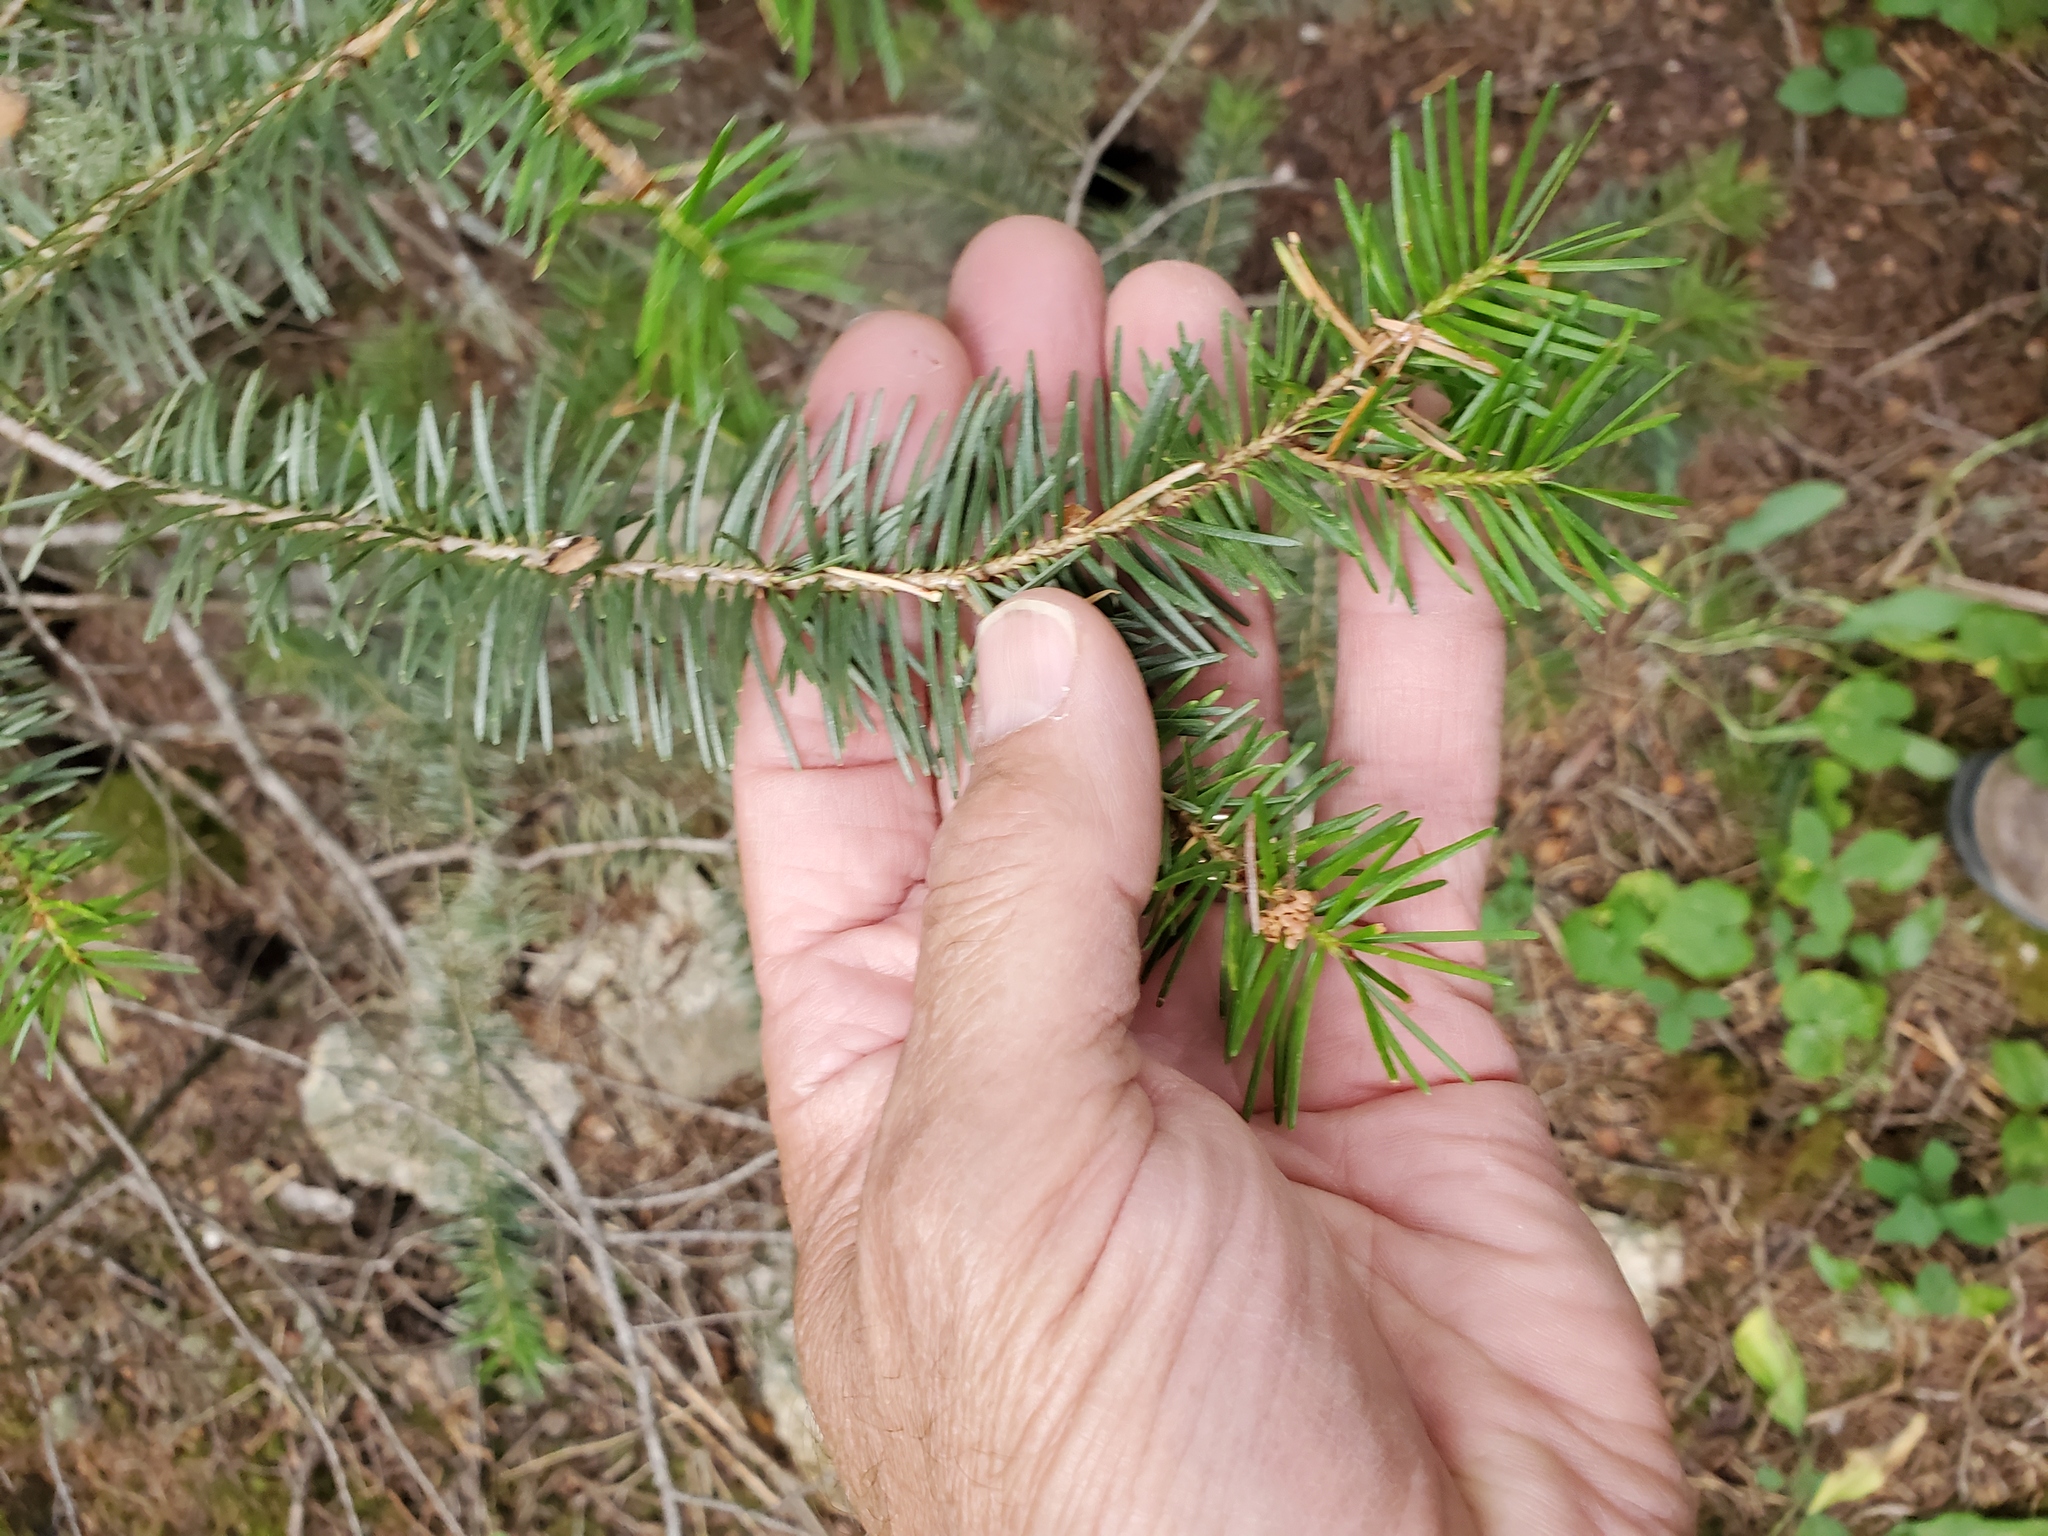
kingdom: Plantae
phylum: Tracheophyta
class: Pinopsida
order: Pinales
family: Pinaceae
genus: Pseudotsuga
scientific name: Pseudotsuga menziesii
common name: Douglas fir
